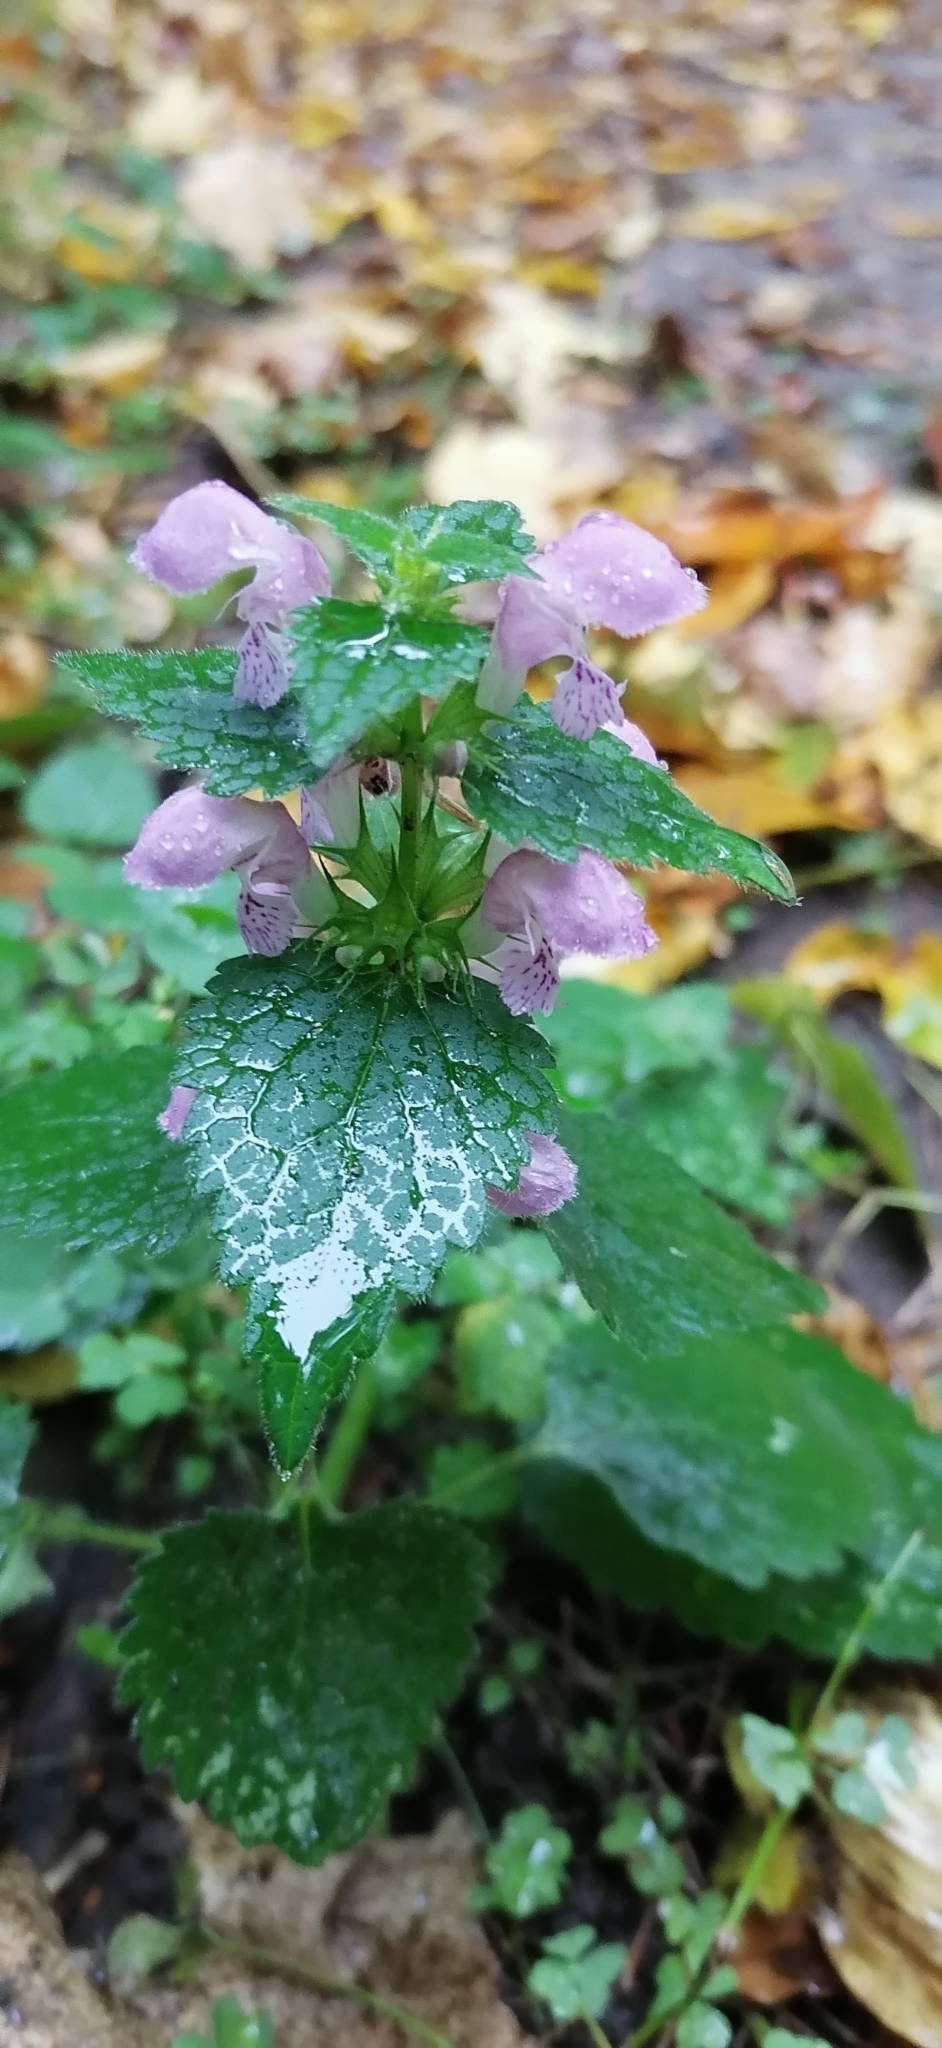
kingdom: Plantae
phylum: Tracheophyta
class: Magnoliopsida
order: Lamiales
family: Lamiaceae
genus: Lamium
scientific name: Lamium maculatum
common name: Spotted dead-nettle
